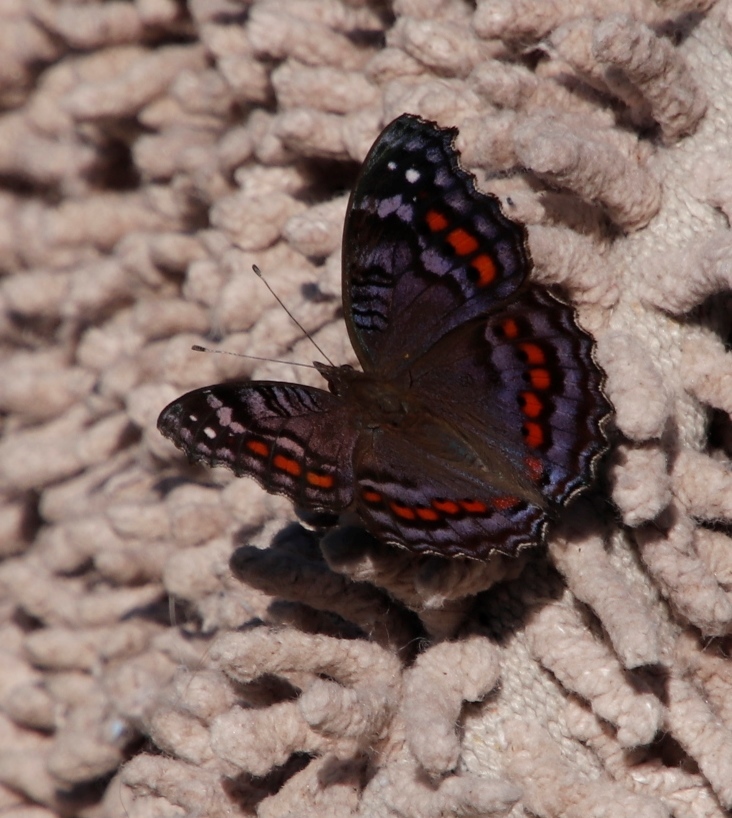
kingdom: Animalia
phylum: Arthropoda
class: Insecta
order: Lepidoptera
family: Nymphalidae
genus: Precis
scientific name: Precis octavia
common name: Gaudy commodore
